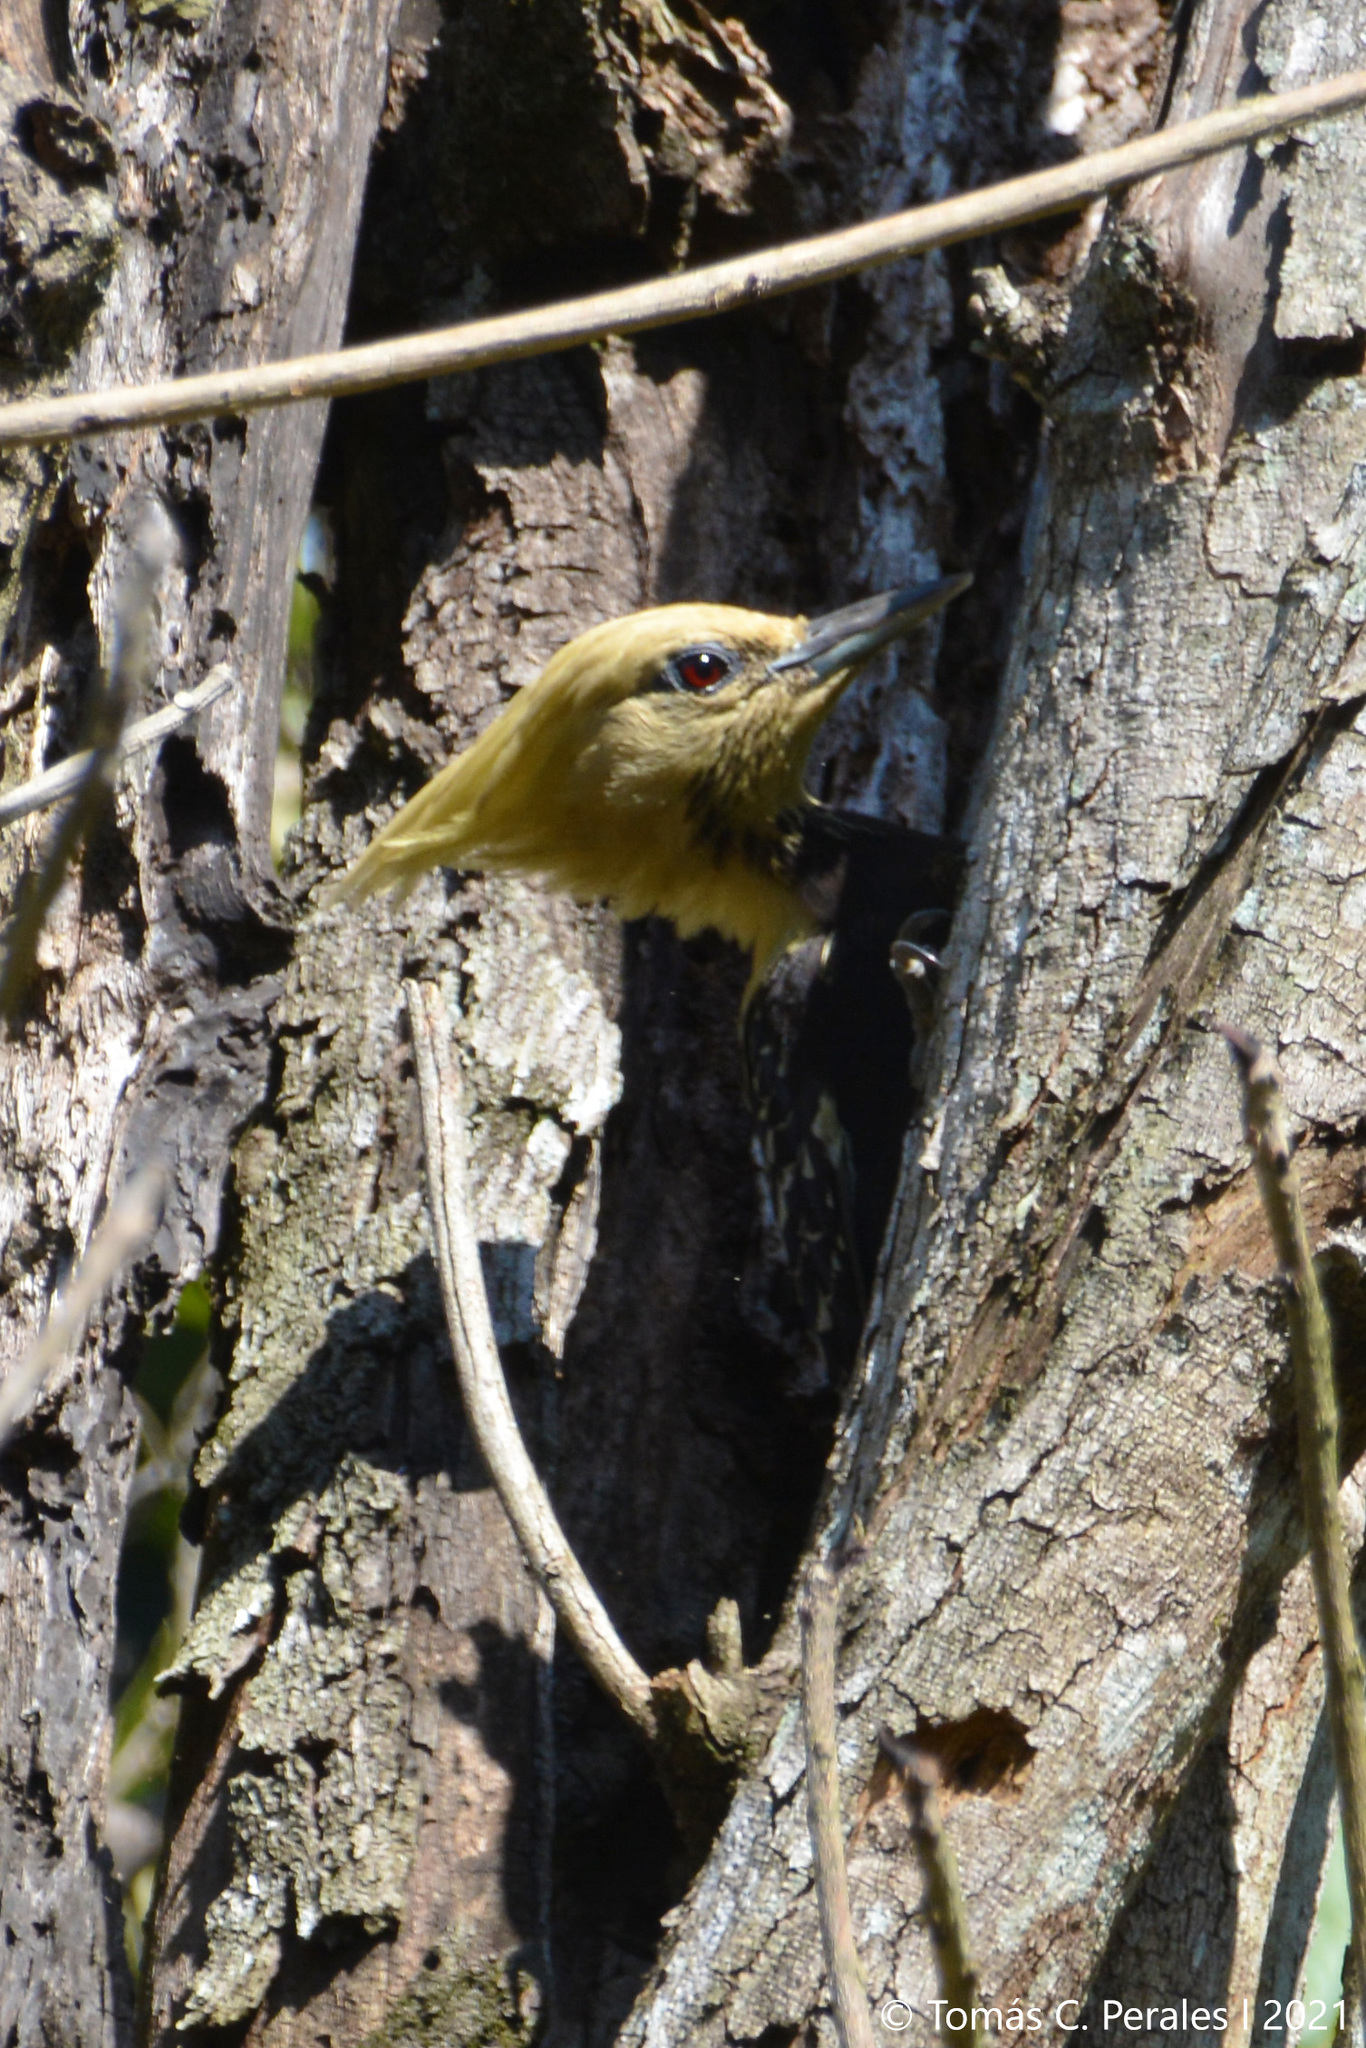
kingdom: Animalia
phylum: Chordata
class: Aves
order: Piciformes
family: Picidae
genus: Celeus
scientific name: Celeus flavescens
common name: Blond-crested woodpecker
